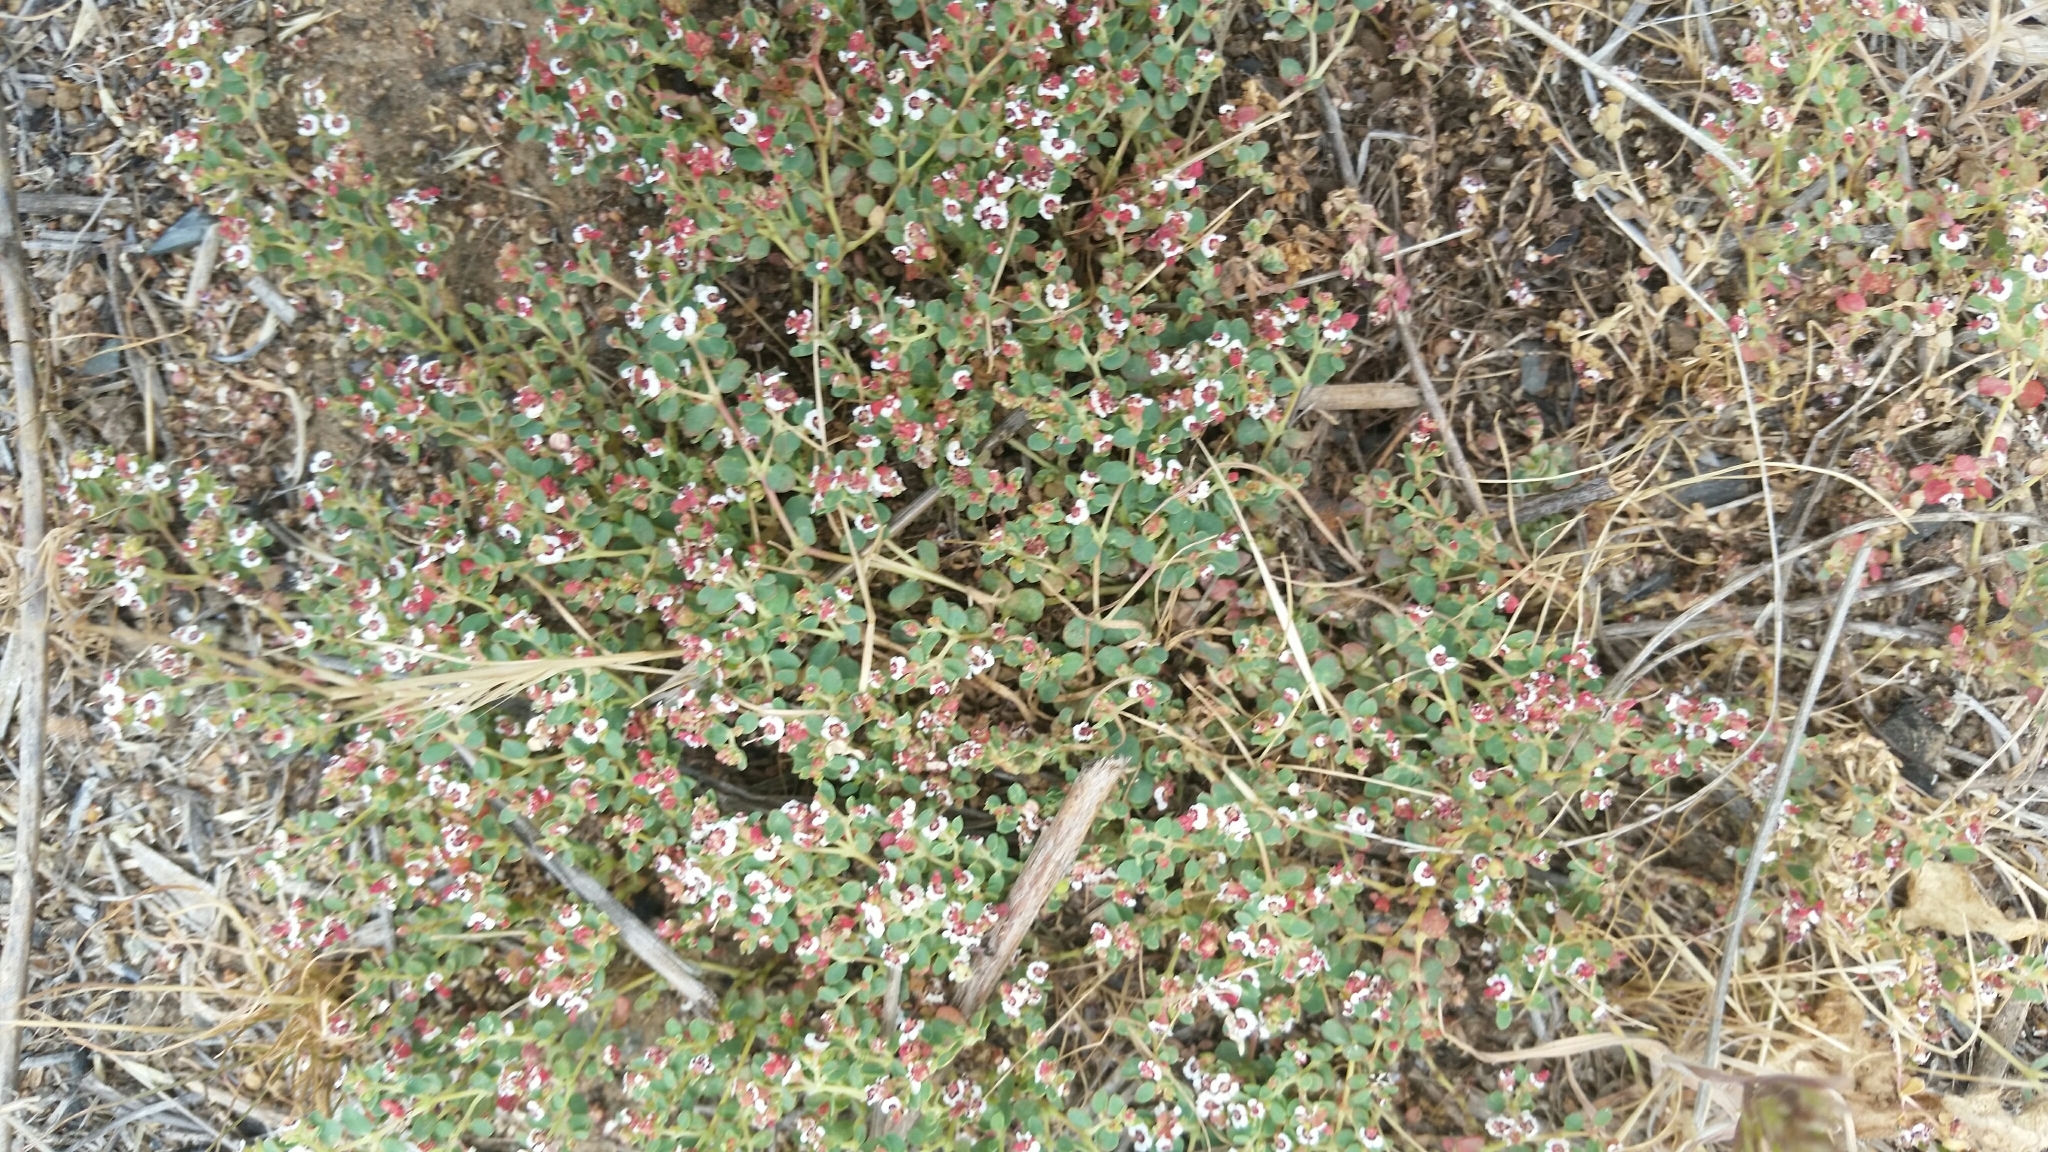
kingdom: Plantae
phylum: Tracheophyta
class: Magnoliopsida
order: Malpighiales
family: Euphorbiaceae
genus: Euphorbia
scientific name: Euphorbia polycarpa
